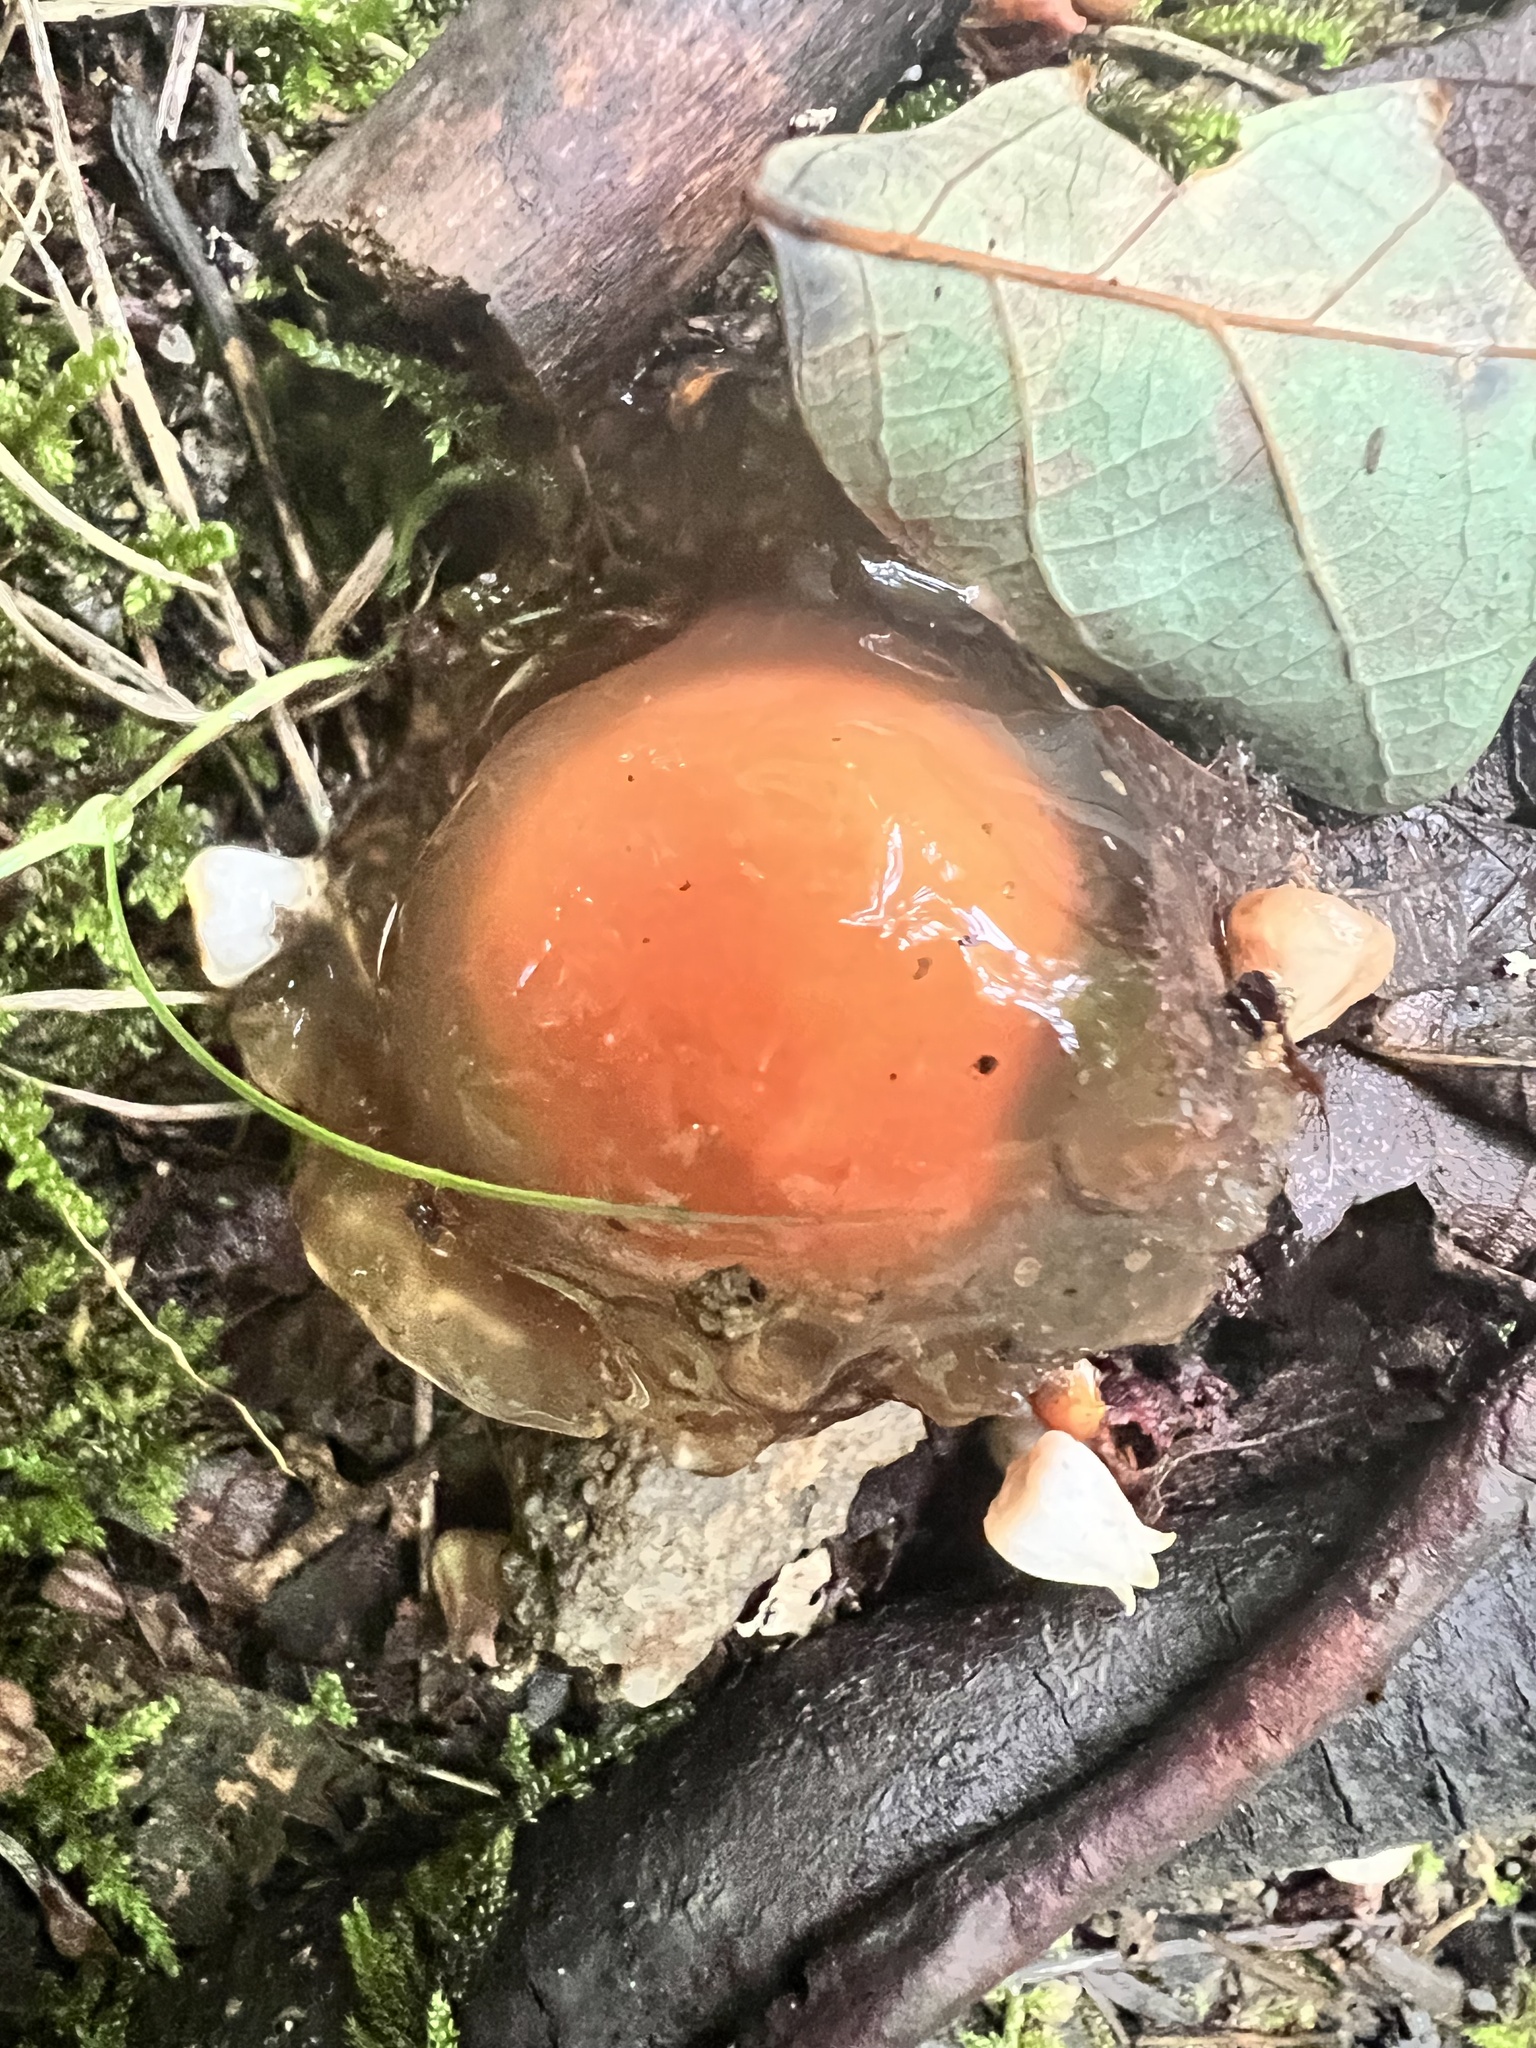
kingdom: Fungi
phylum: Basidiomycota
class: Agaricomycetes
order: Boletales
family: Calostomataceae
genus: Calostoma
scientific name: Calostoma cinnabarinum
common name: Stalked puffball-in-aspic
